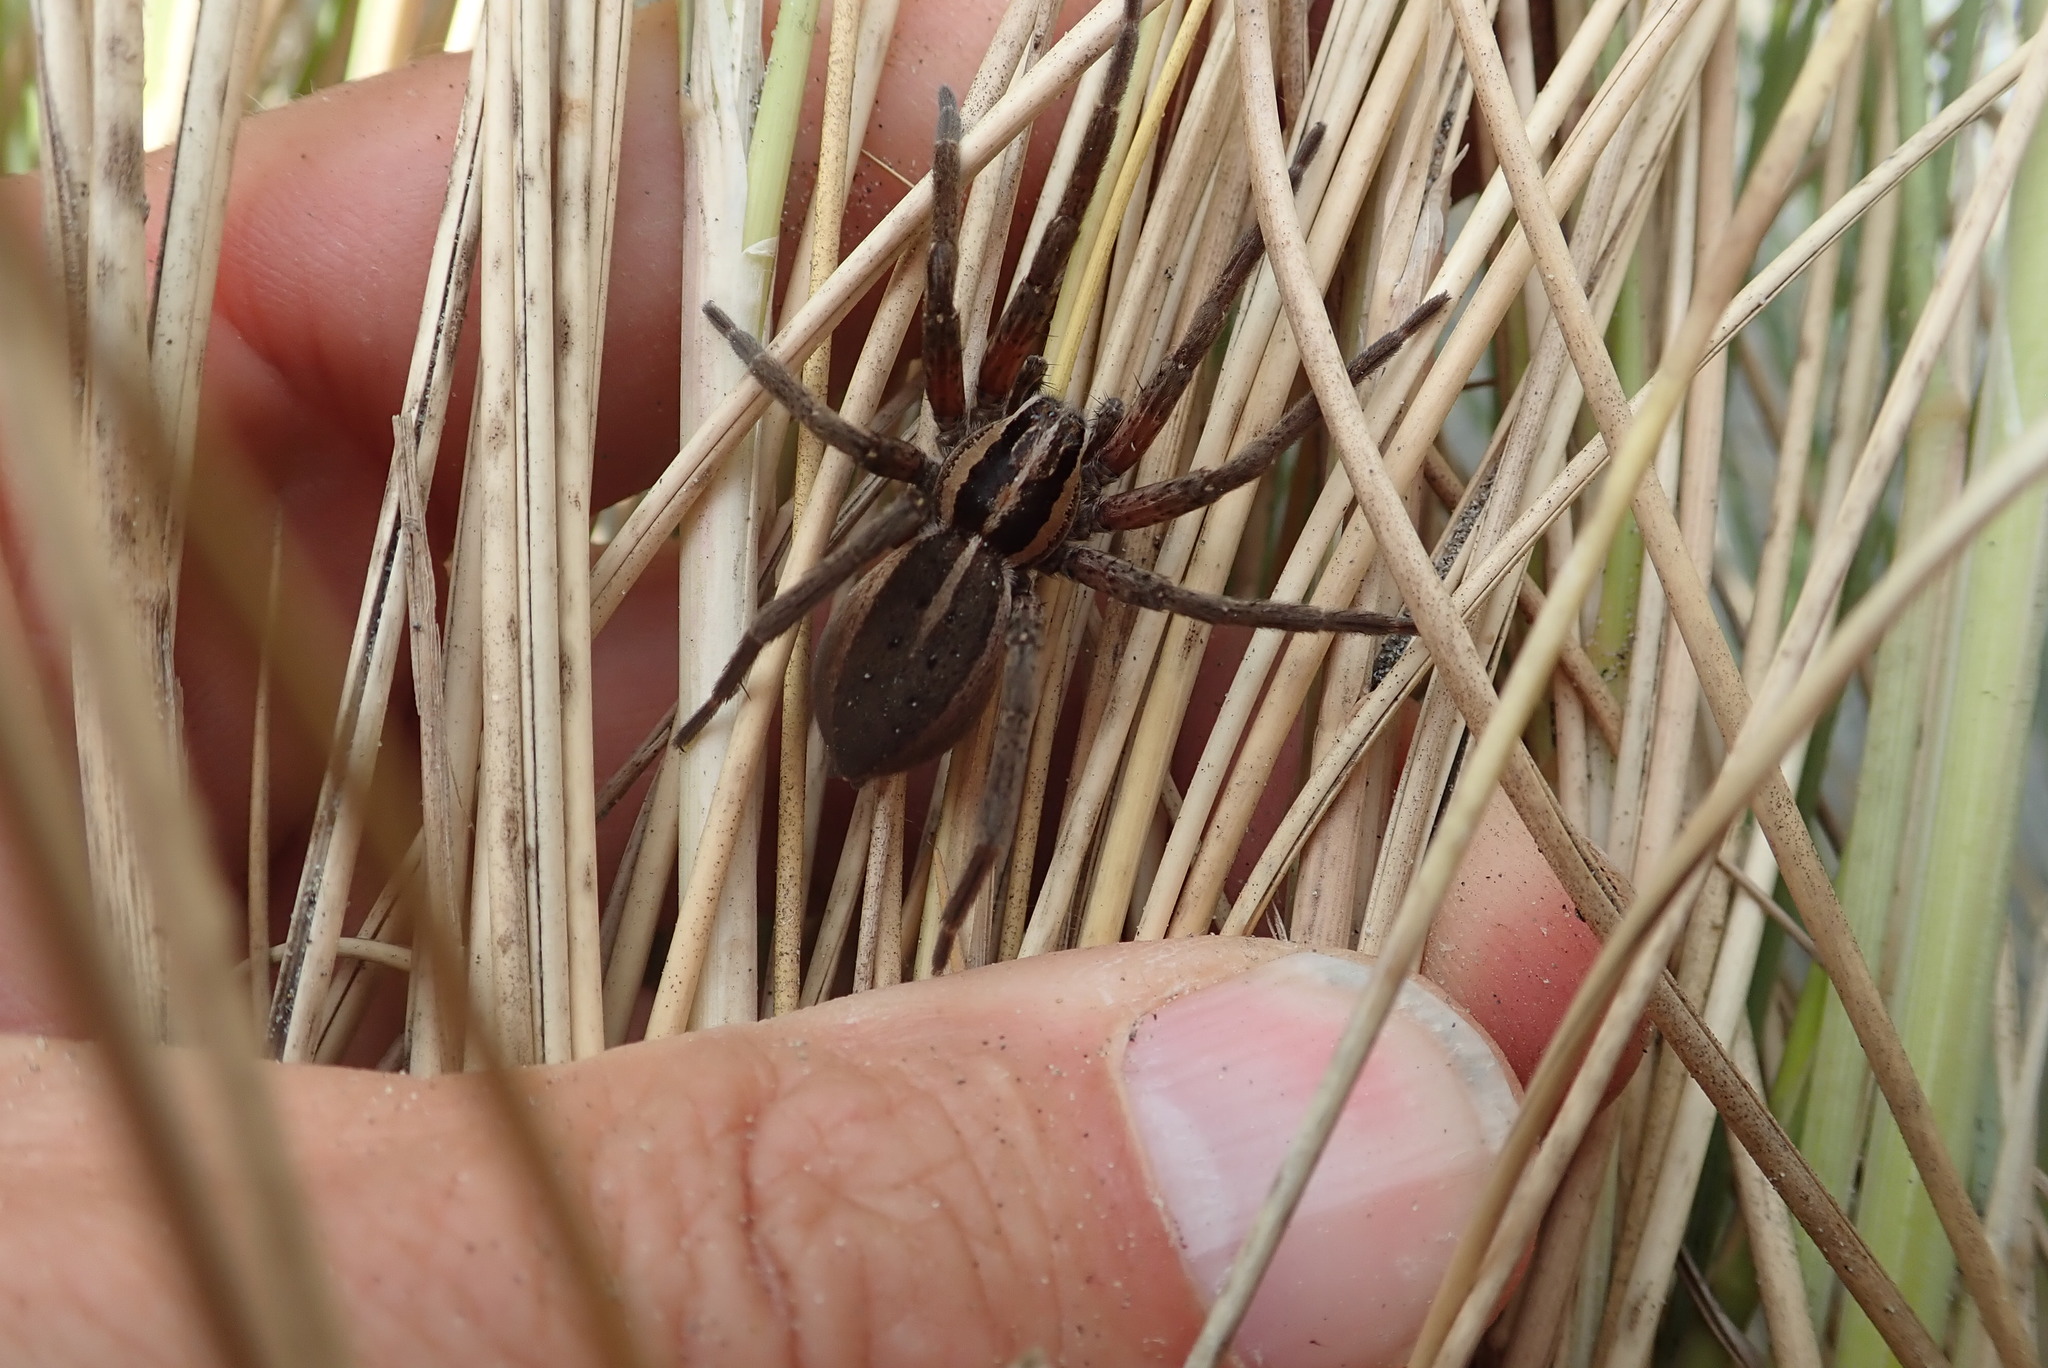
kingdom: Animalia
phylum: Arthropoda
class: Arachnida
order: Araneae
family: Pisauridae
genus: Dolomedes
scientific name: Dolomedes minor
